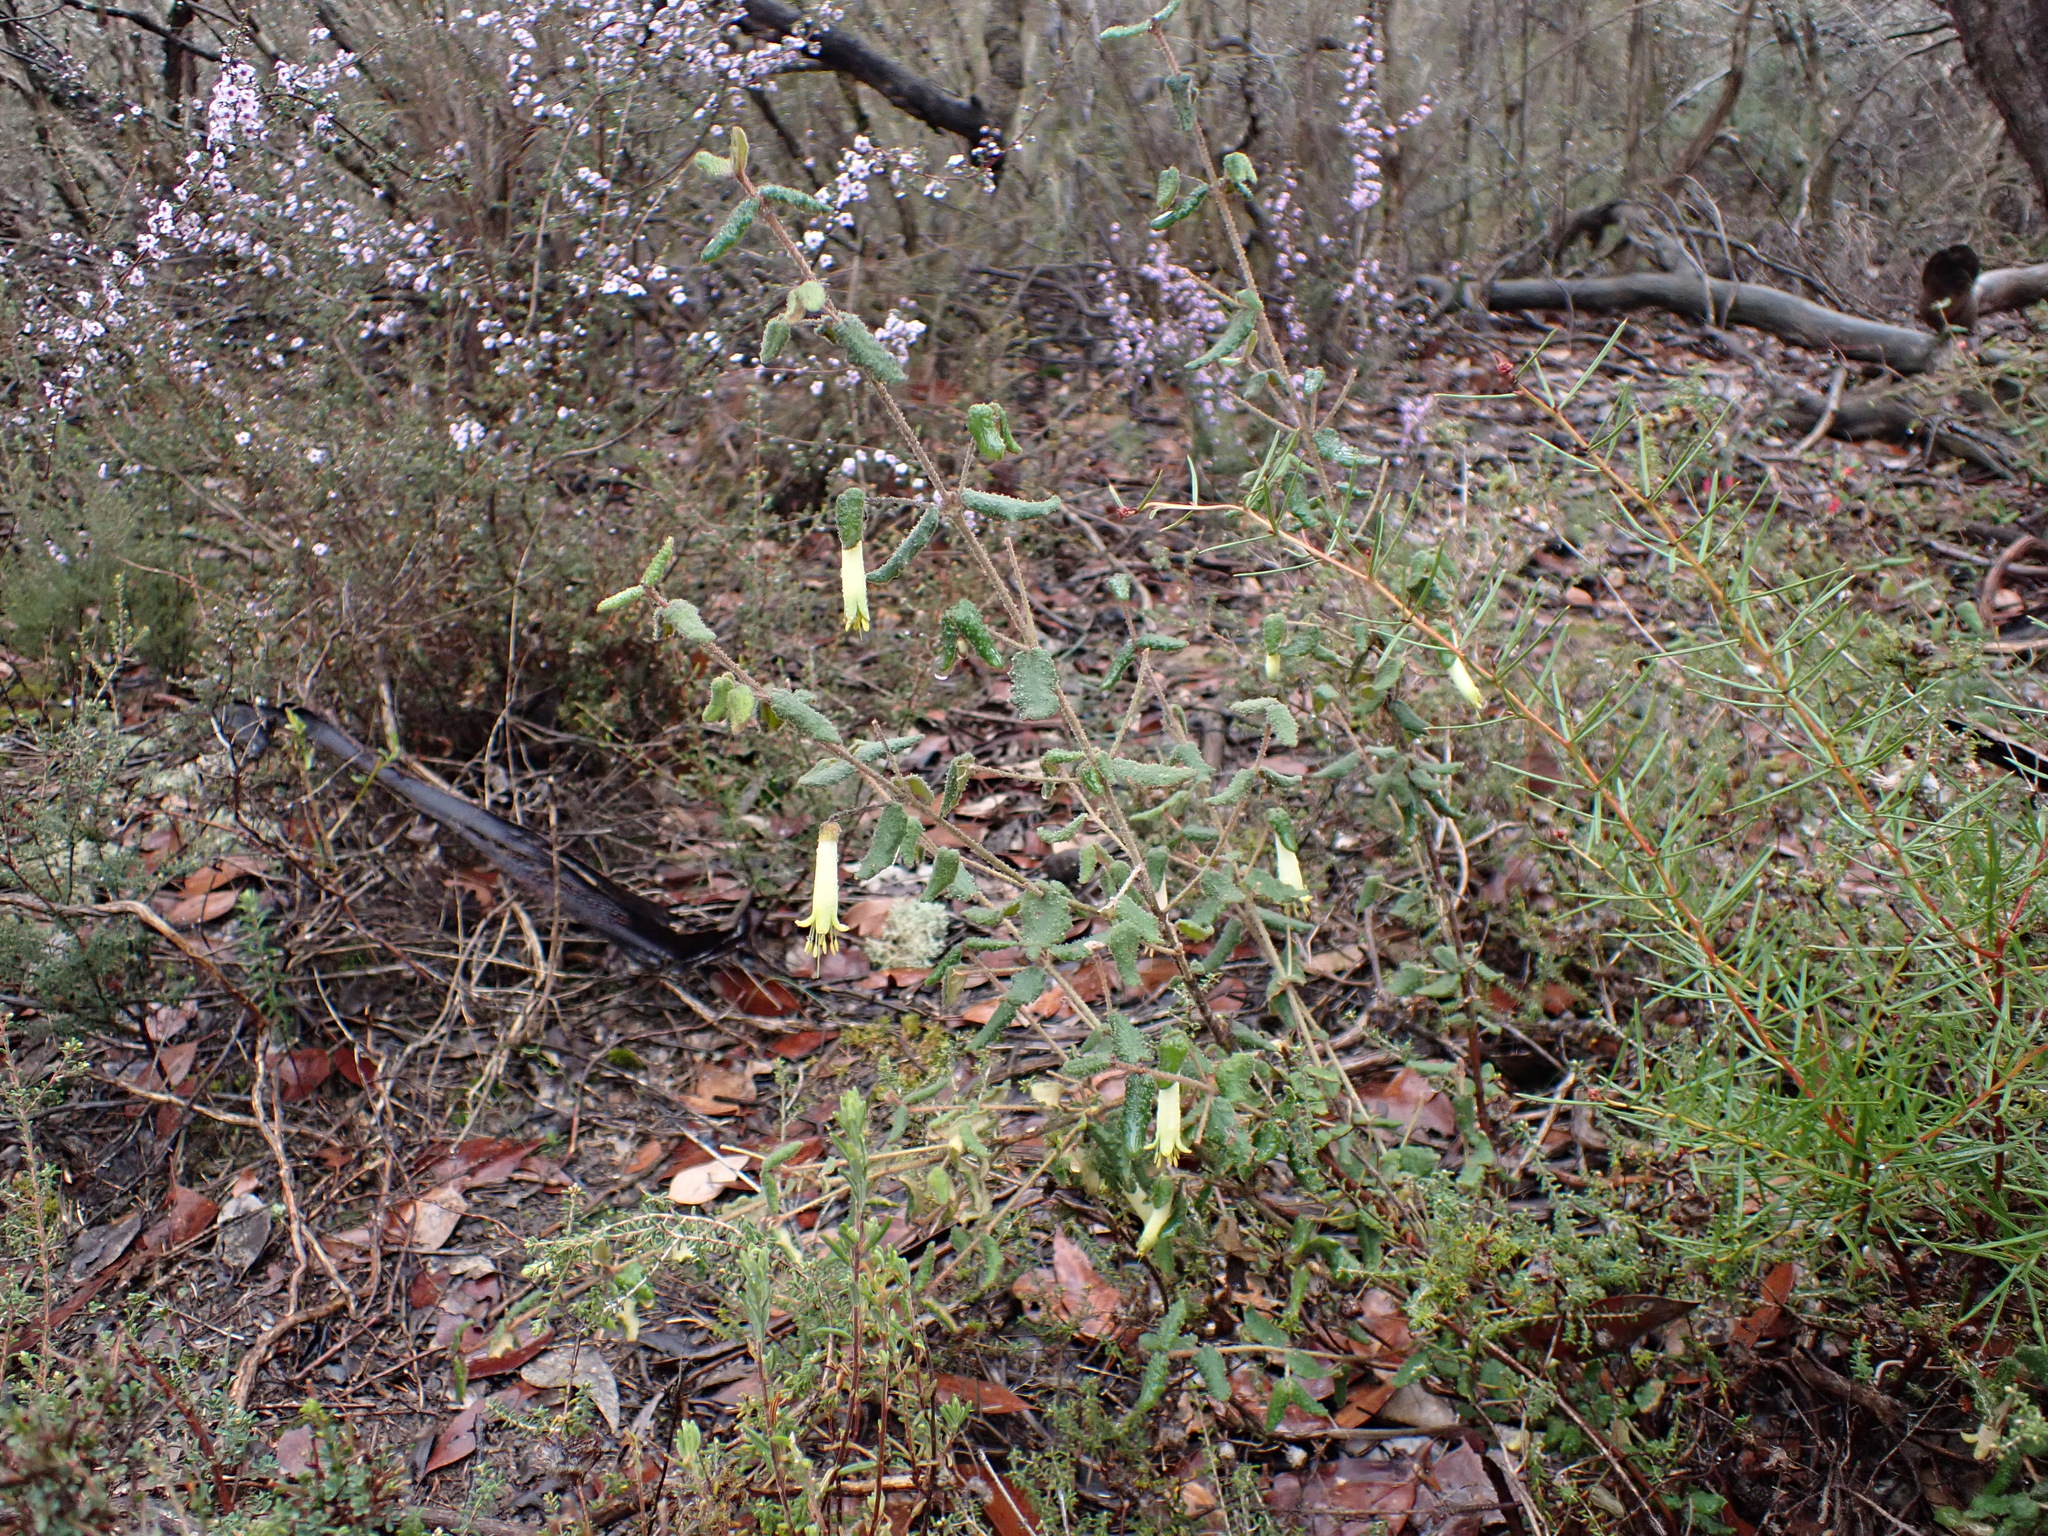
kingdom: Plantae
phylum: Tracheophyta
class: Magnoliopsida
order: Sapindales
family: Rutaceae
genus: Correa
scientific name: Correa reflexa
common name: Common correa
